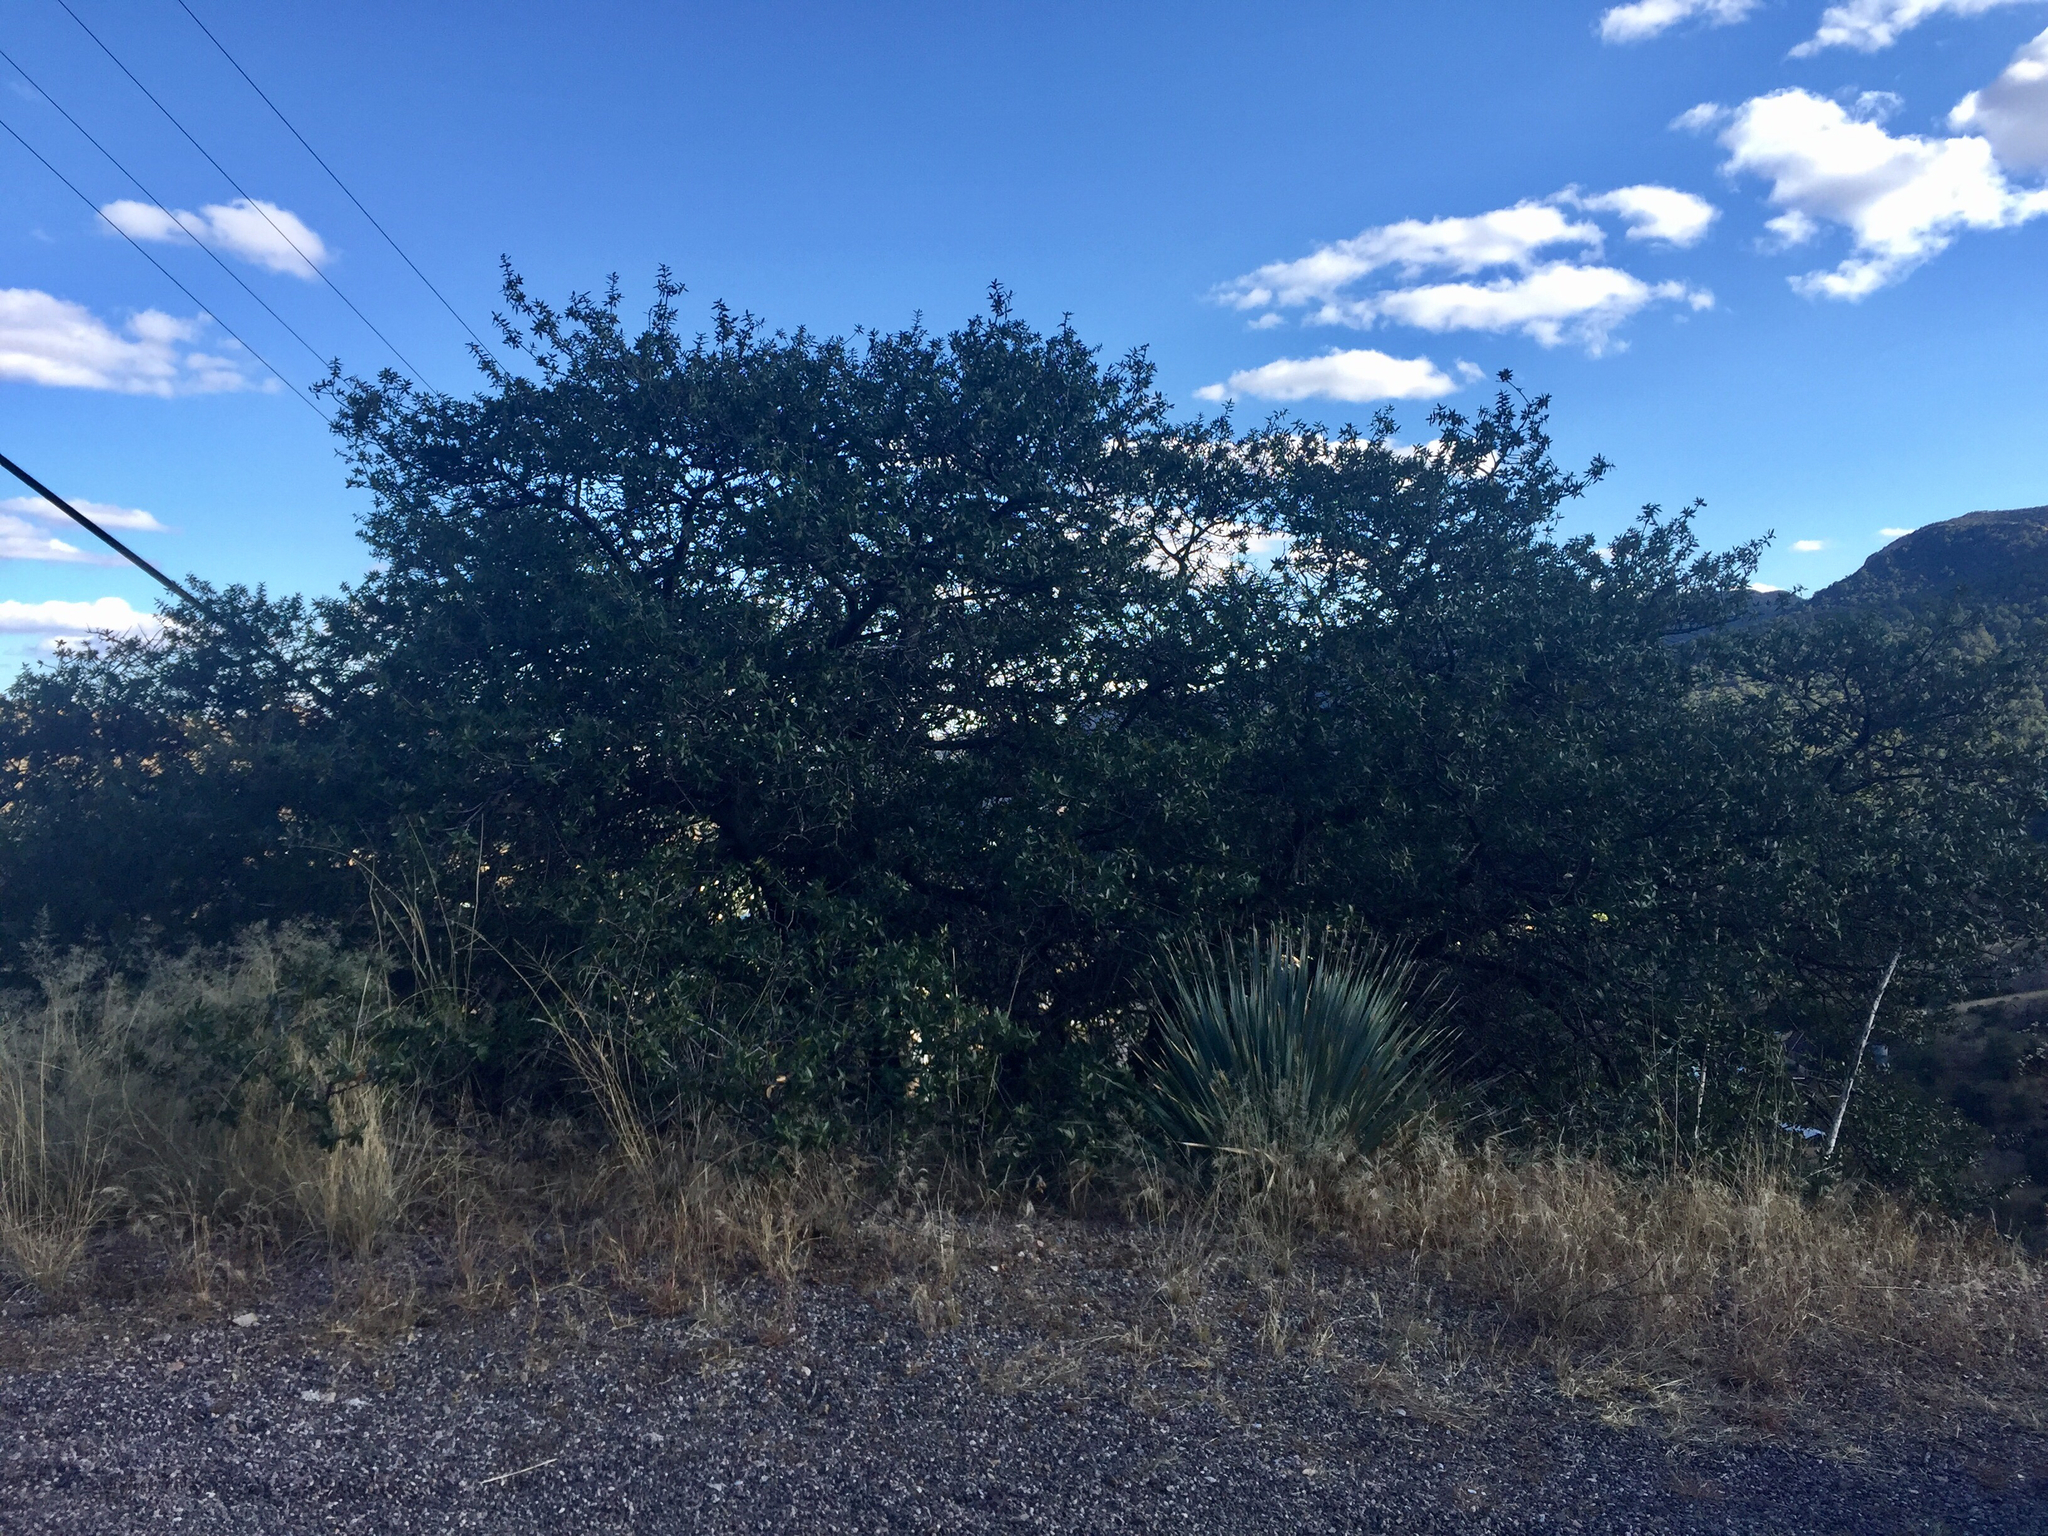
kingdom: Plantae
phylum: Tracheophyta
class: Magnoliopsida
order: Fagales
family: Fagaceae
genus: Quercus
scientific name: Quercus emoryi
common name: Emory oak
